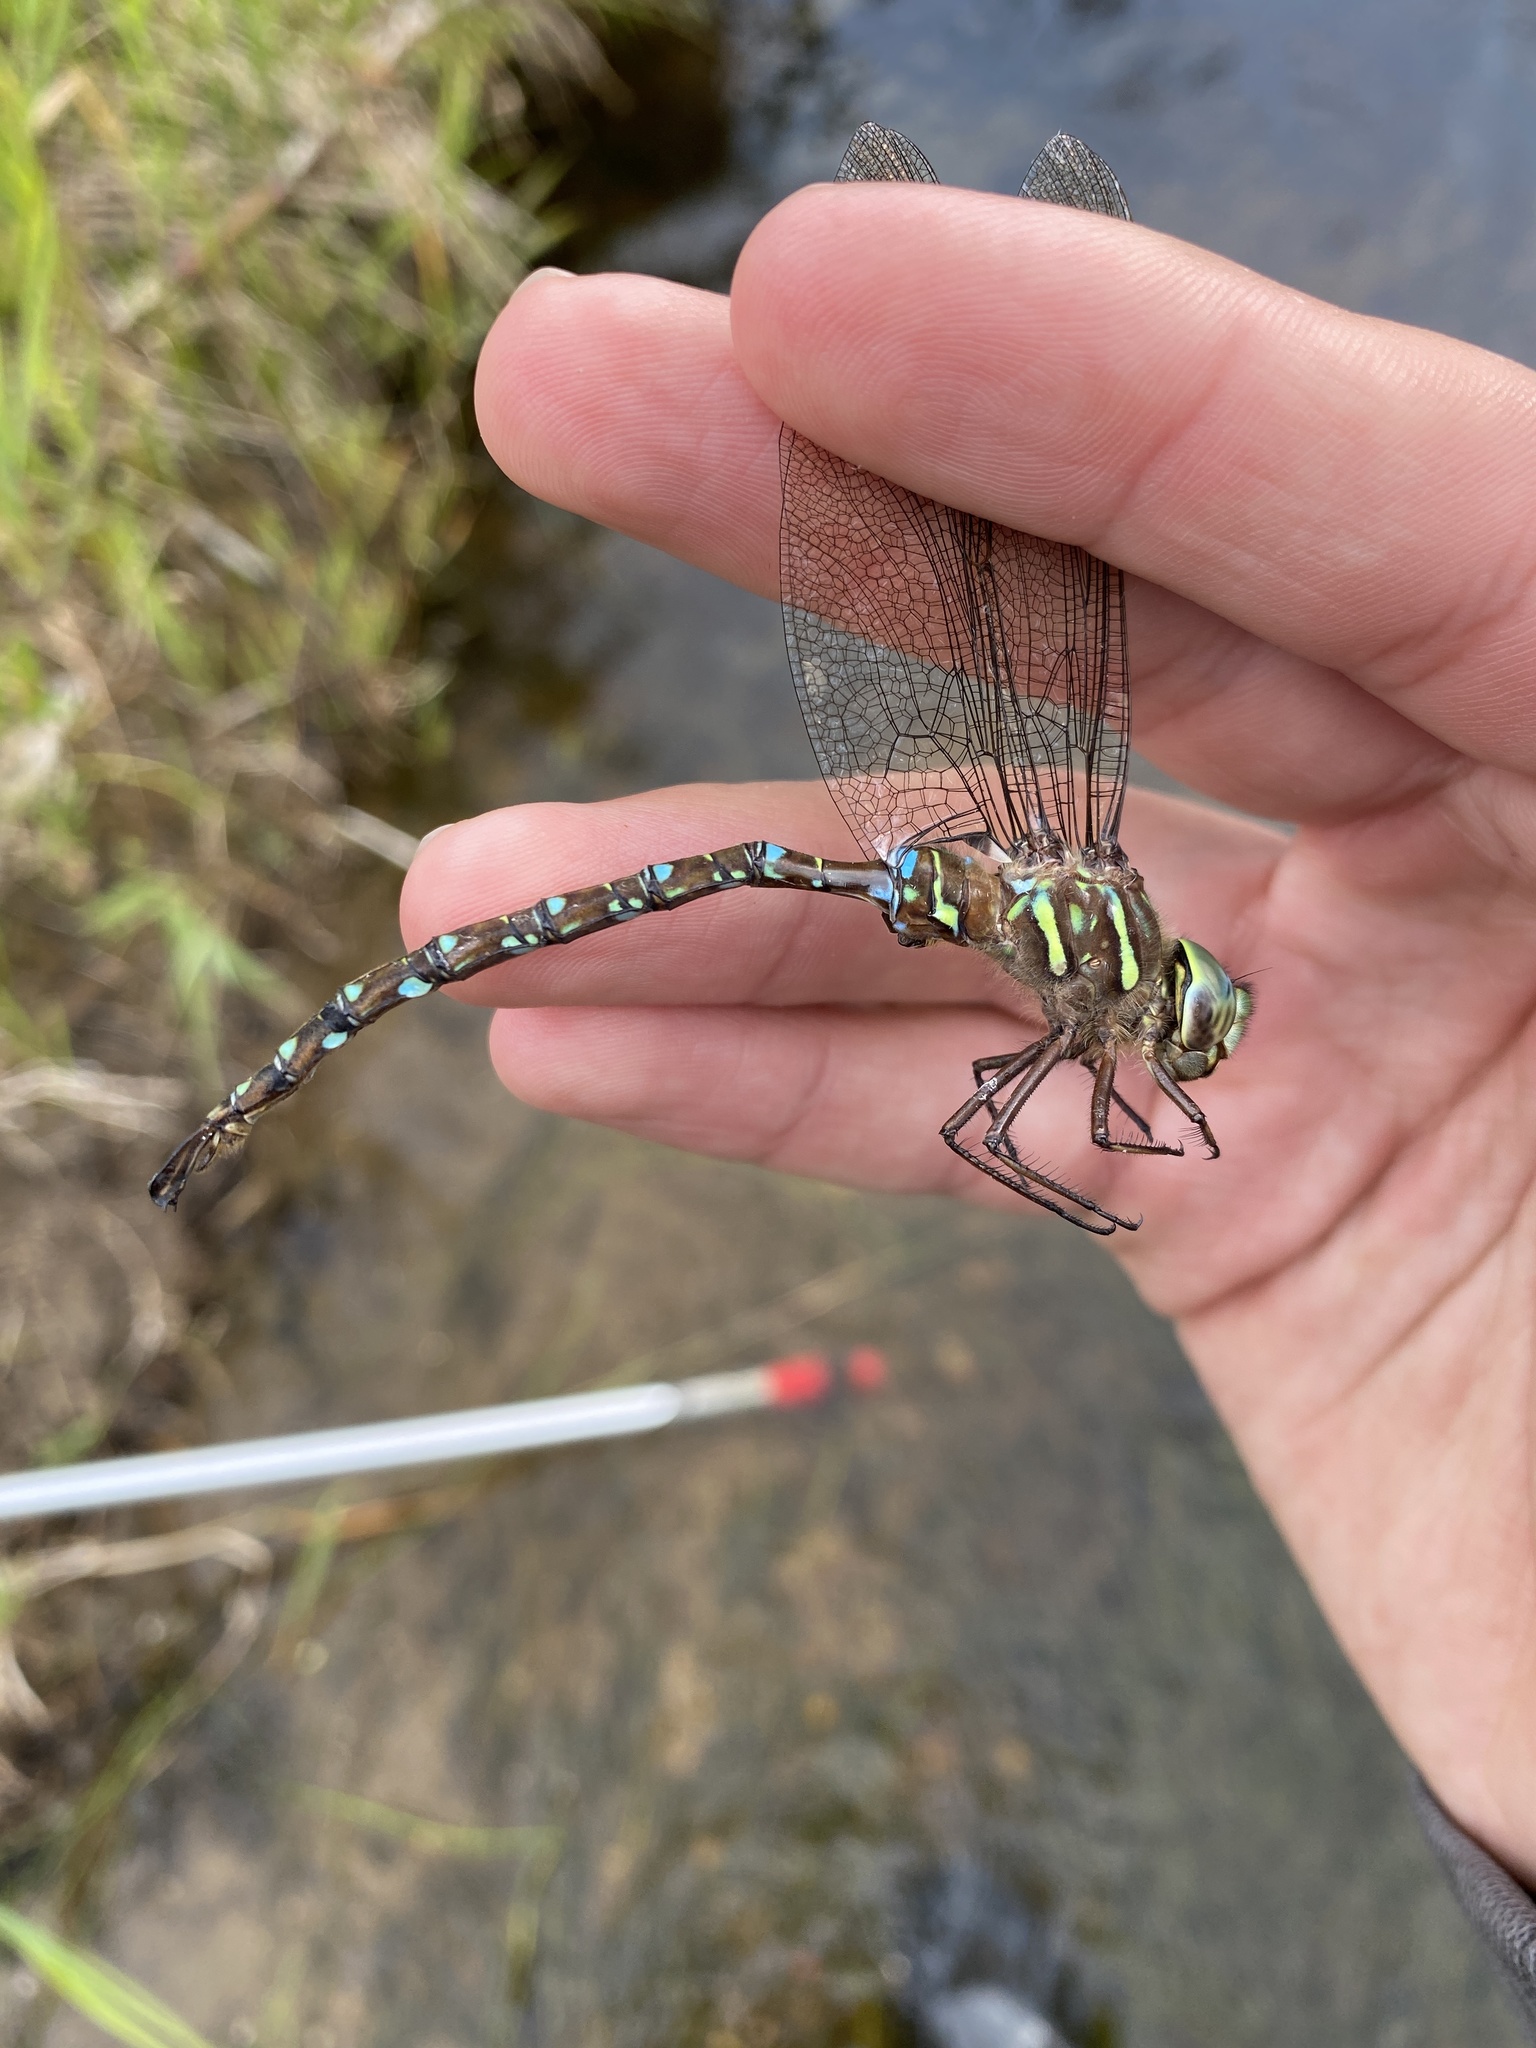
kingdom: Animalia
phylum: Arthropoda
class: Insecta
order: Odonata
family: Aeshnidae
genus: Aeshna
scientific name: Aeshna umbrosa
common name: Shadow darner
